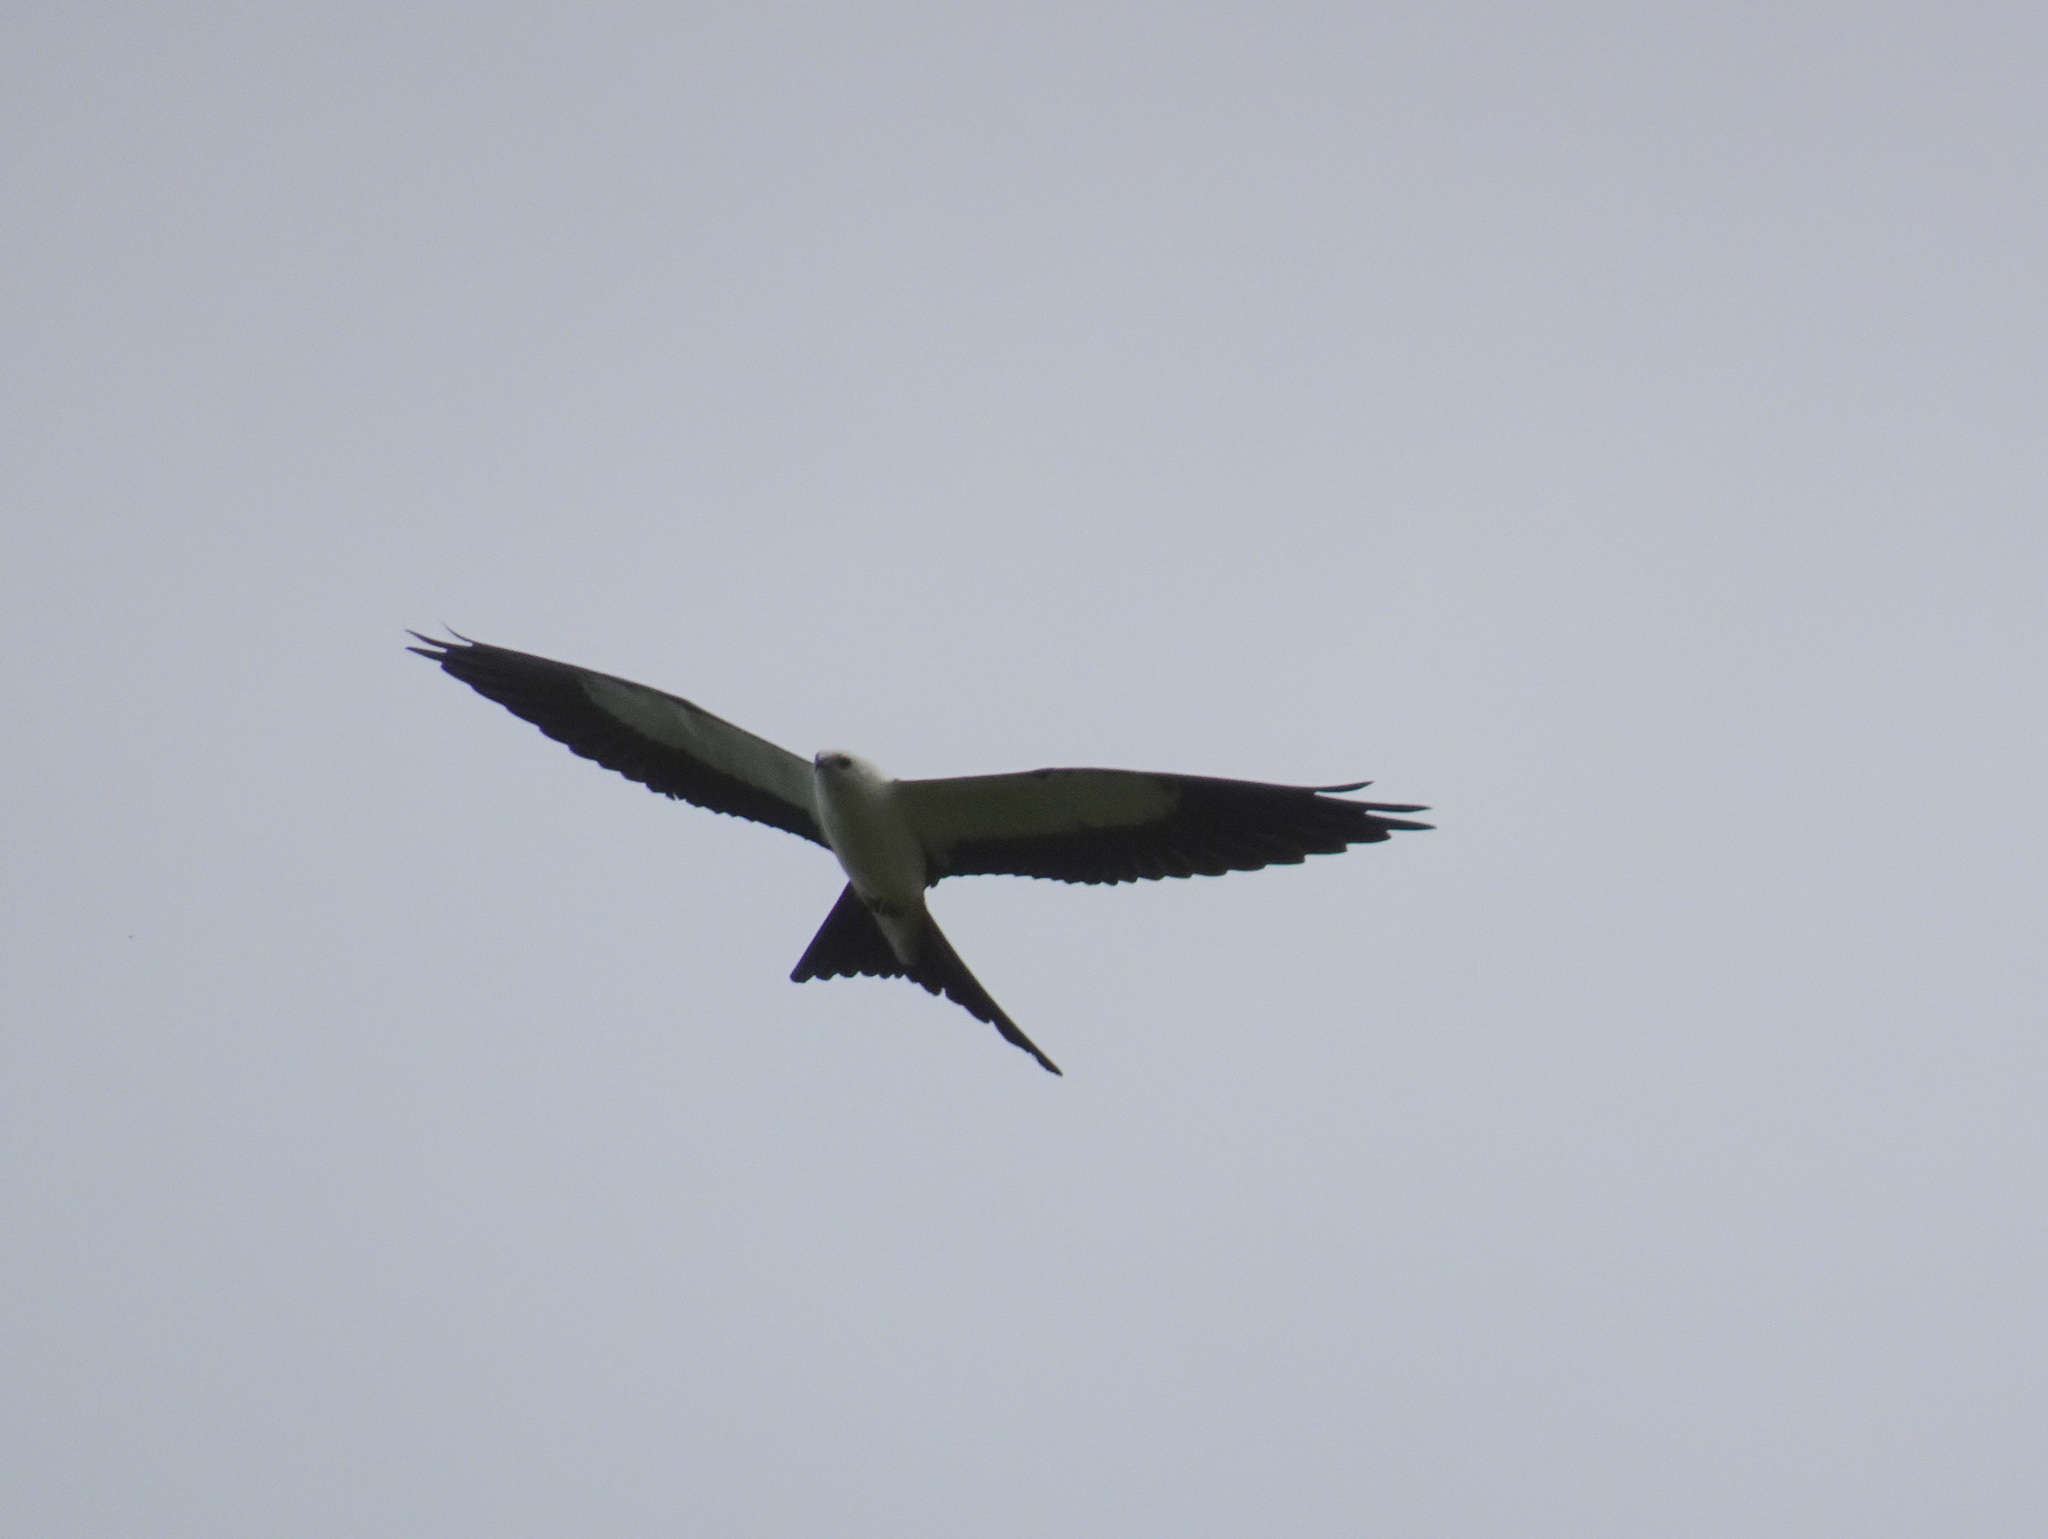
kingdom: Animalia
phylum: Chordata
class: Aves
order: Accipitriformes
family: Accipitridae
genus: Elanoides
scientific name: Elanoides forficatus
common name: Swallow-tailed kite
